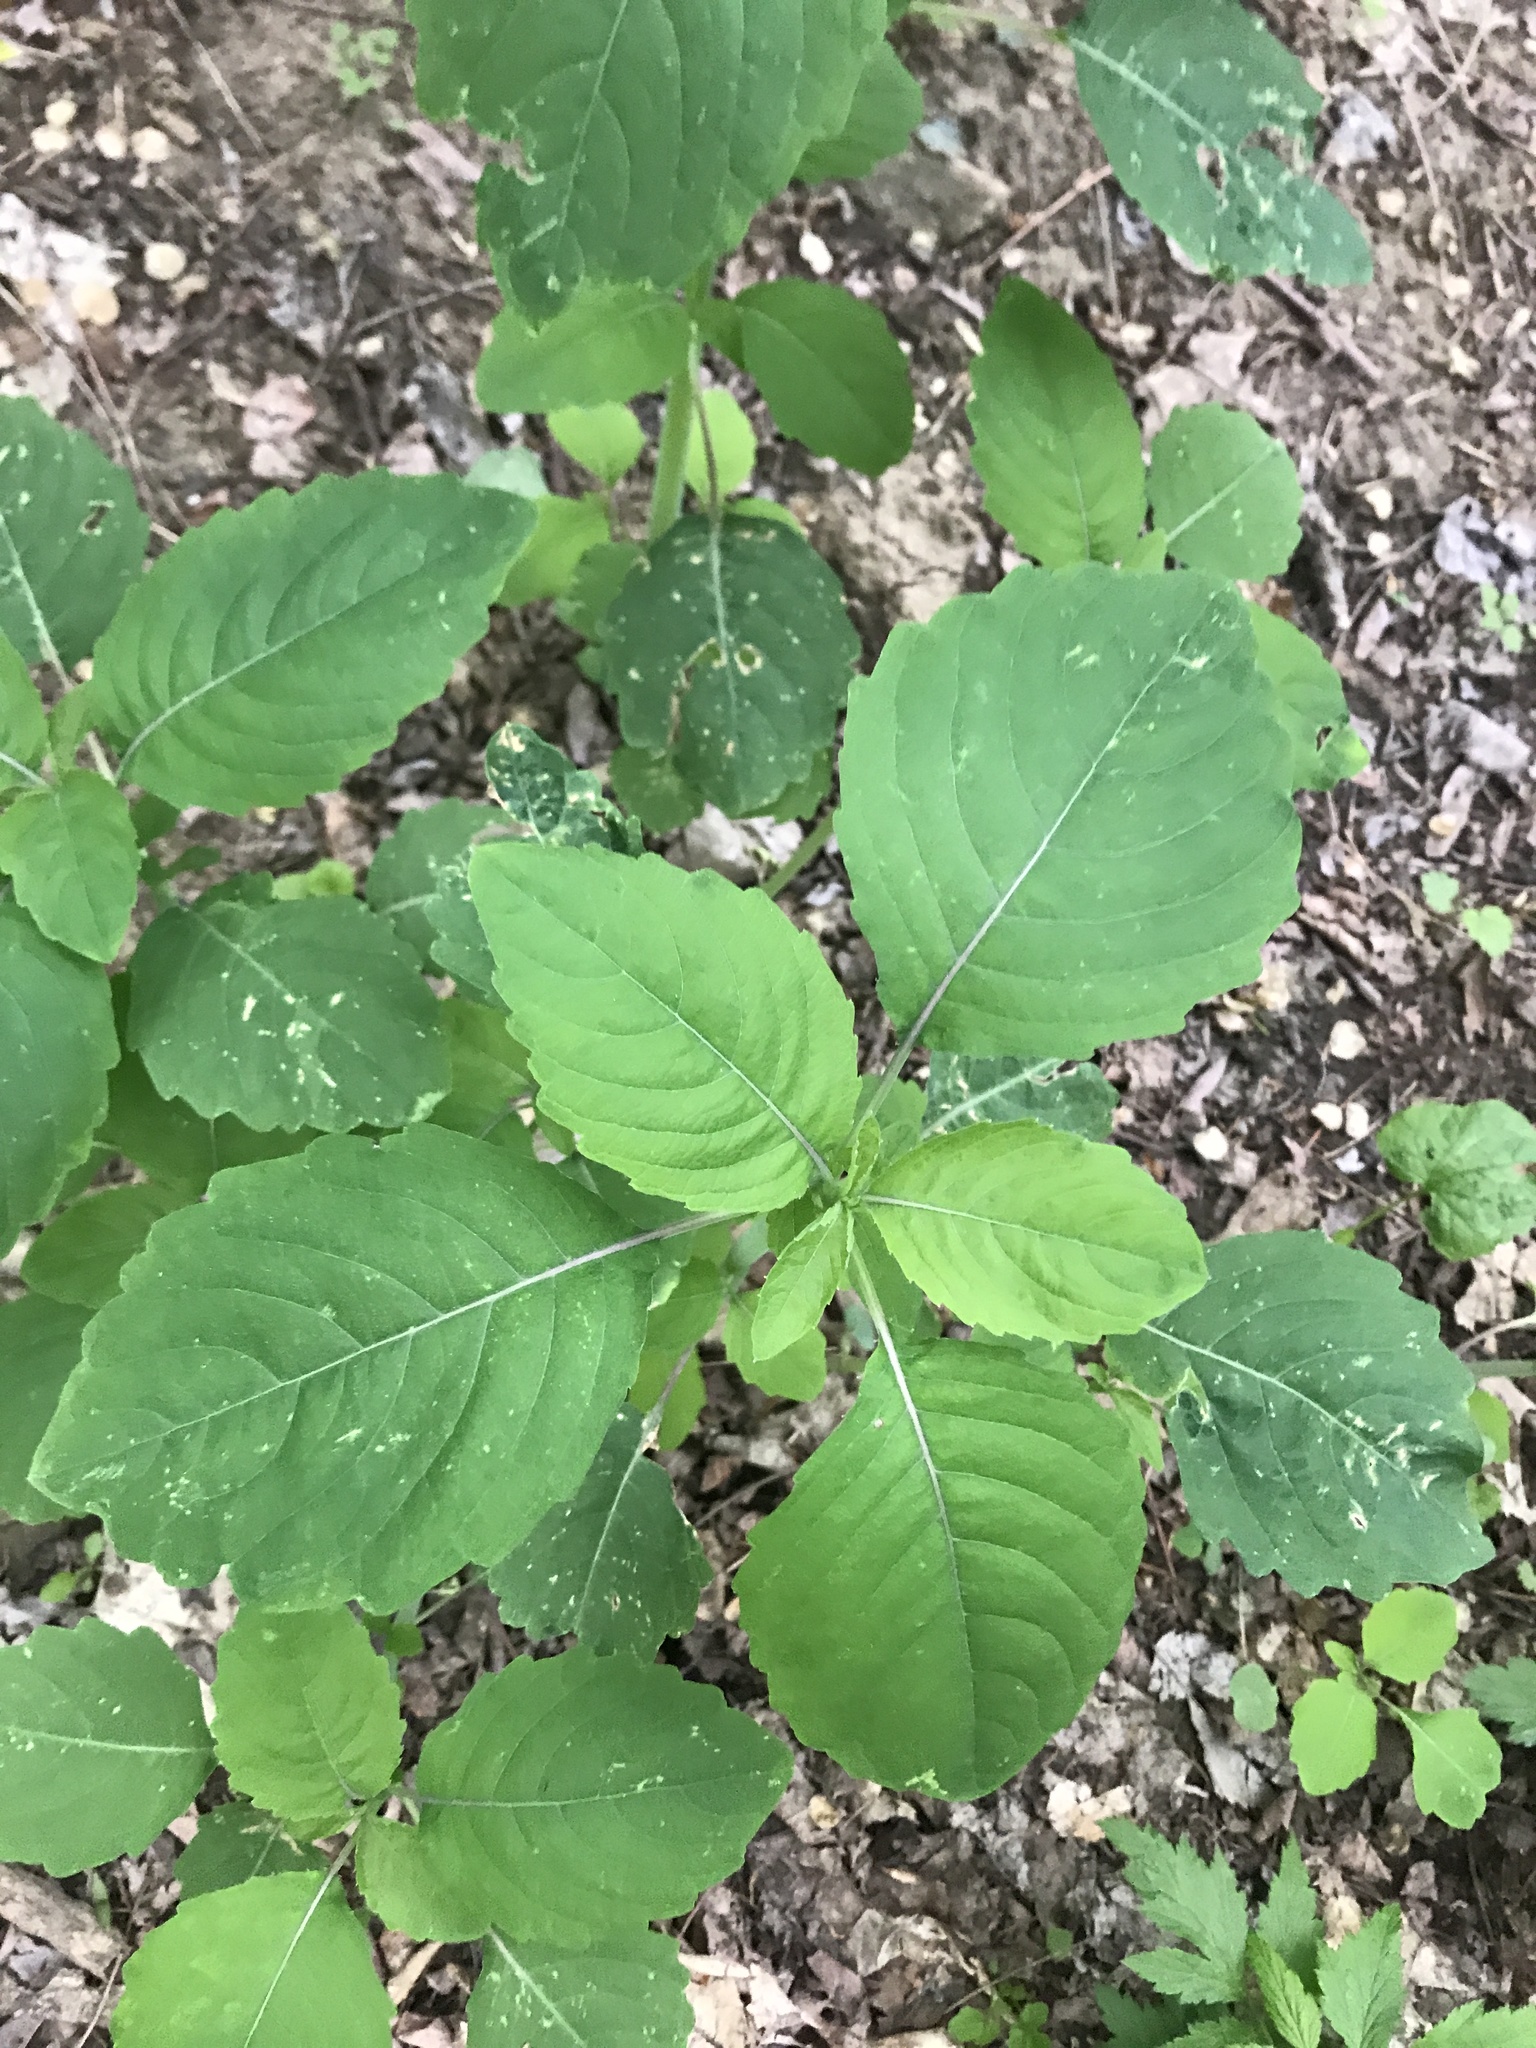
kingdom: Plantae
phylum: Tracheophyta
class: Magnoliopsida
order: Myrtales
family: Onagraceae
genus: Circaea
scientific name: Circaea canadensis
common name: Broad-leaved enchanter's nightshade
